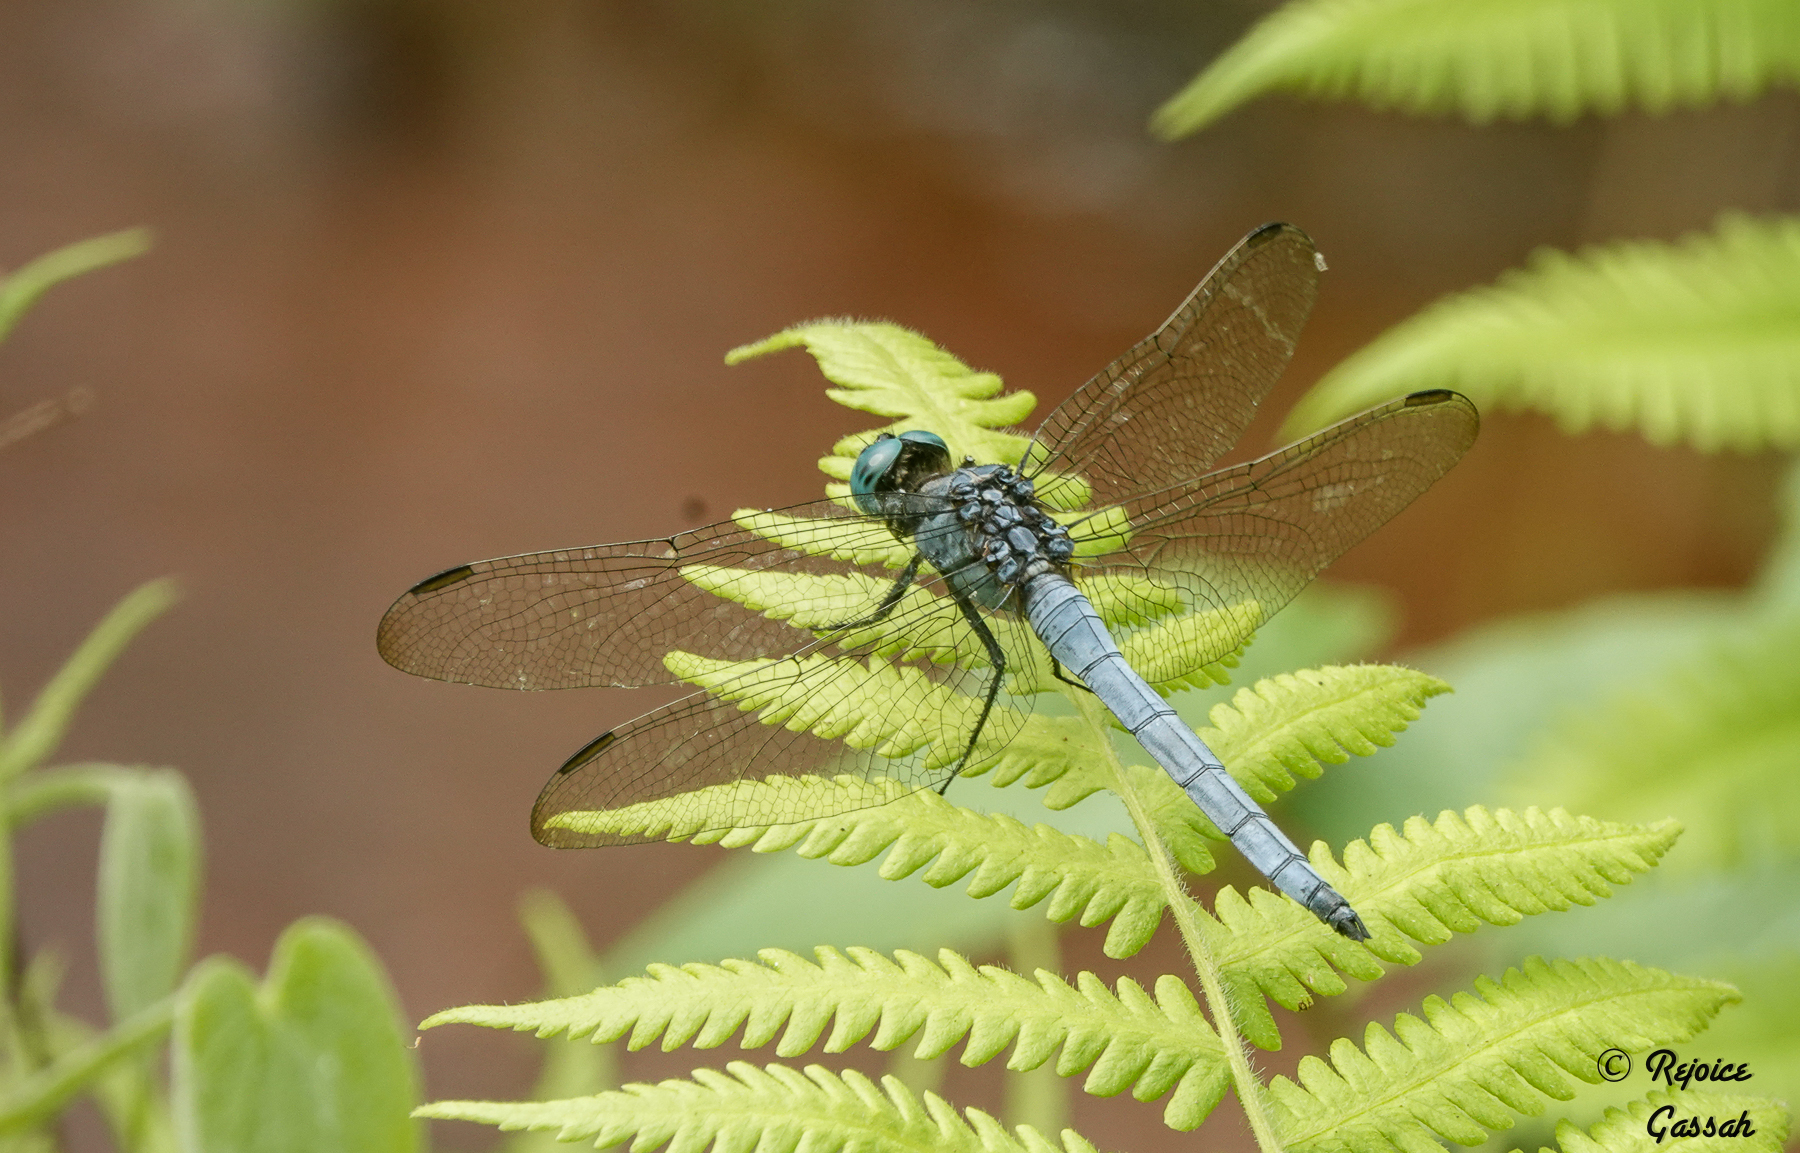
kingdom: Animalia
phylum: Arthropoda
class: Insecta
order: Odonata
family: Libellulidae
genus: Orthetrum
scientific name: Orthetrum luzonicum
